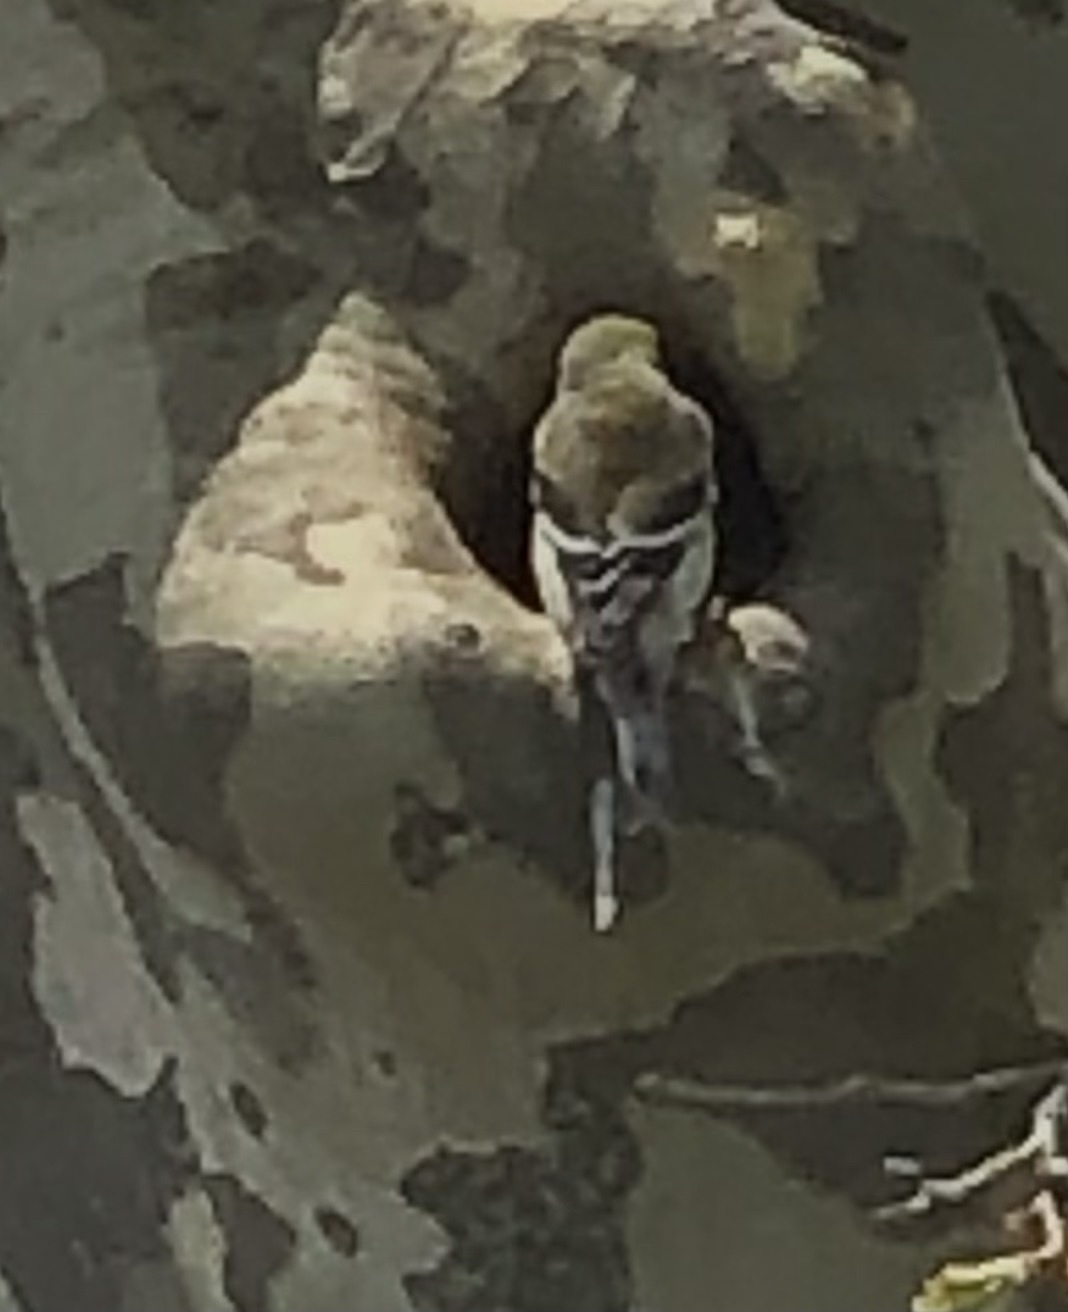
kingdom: Animalia
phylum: Chordata
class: Aves
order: Passeriformes
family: Fringillidae
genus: Spinus
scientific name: Spinus tristis
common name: American goldfinch
